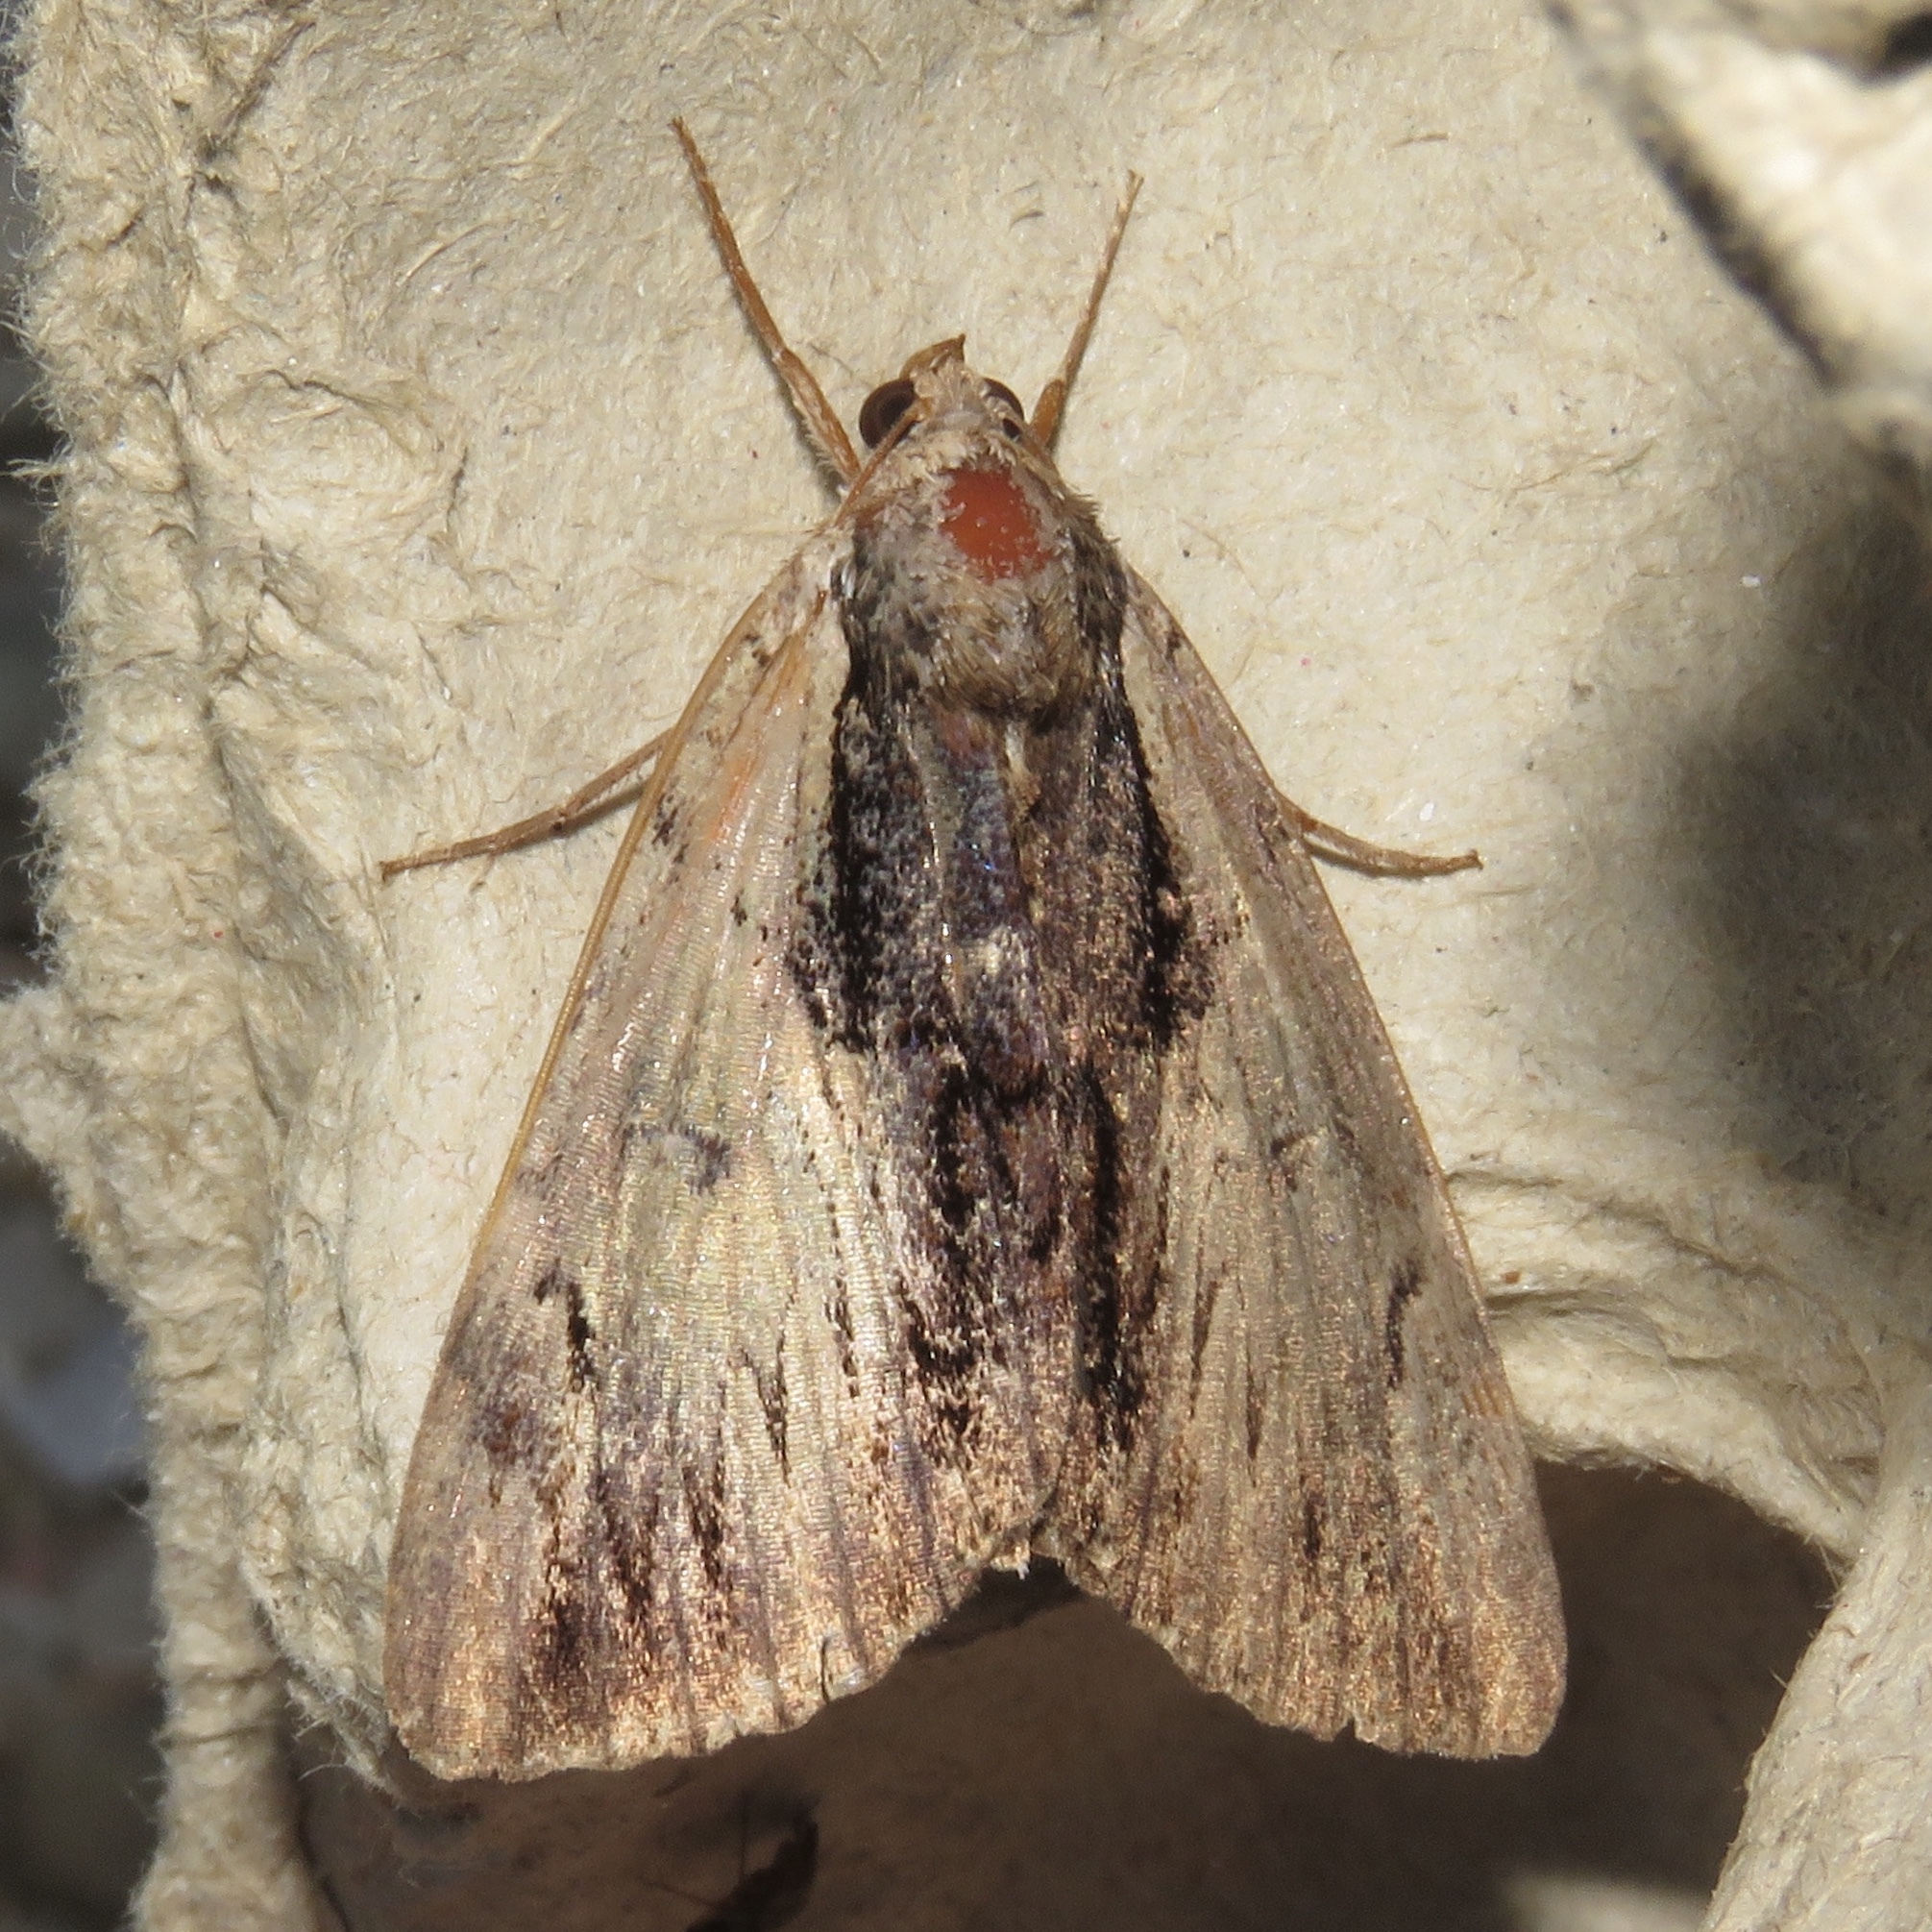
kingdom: Animalia
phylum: Arthropoda
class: Insecta
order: Lepidoptera
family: Erebidae
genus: Catocala
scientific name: Catocala ultronia
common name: Ultronia underwing
